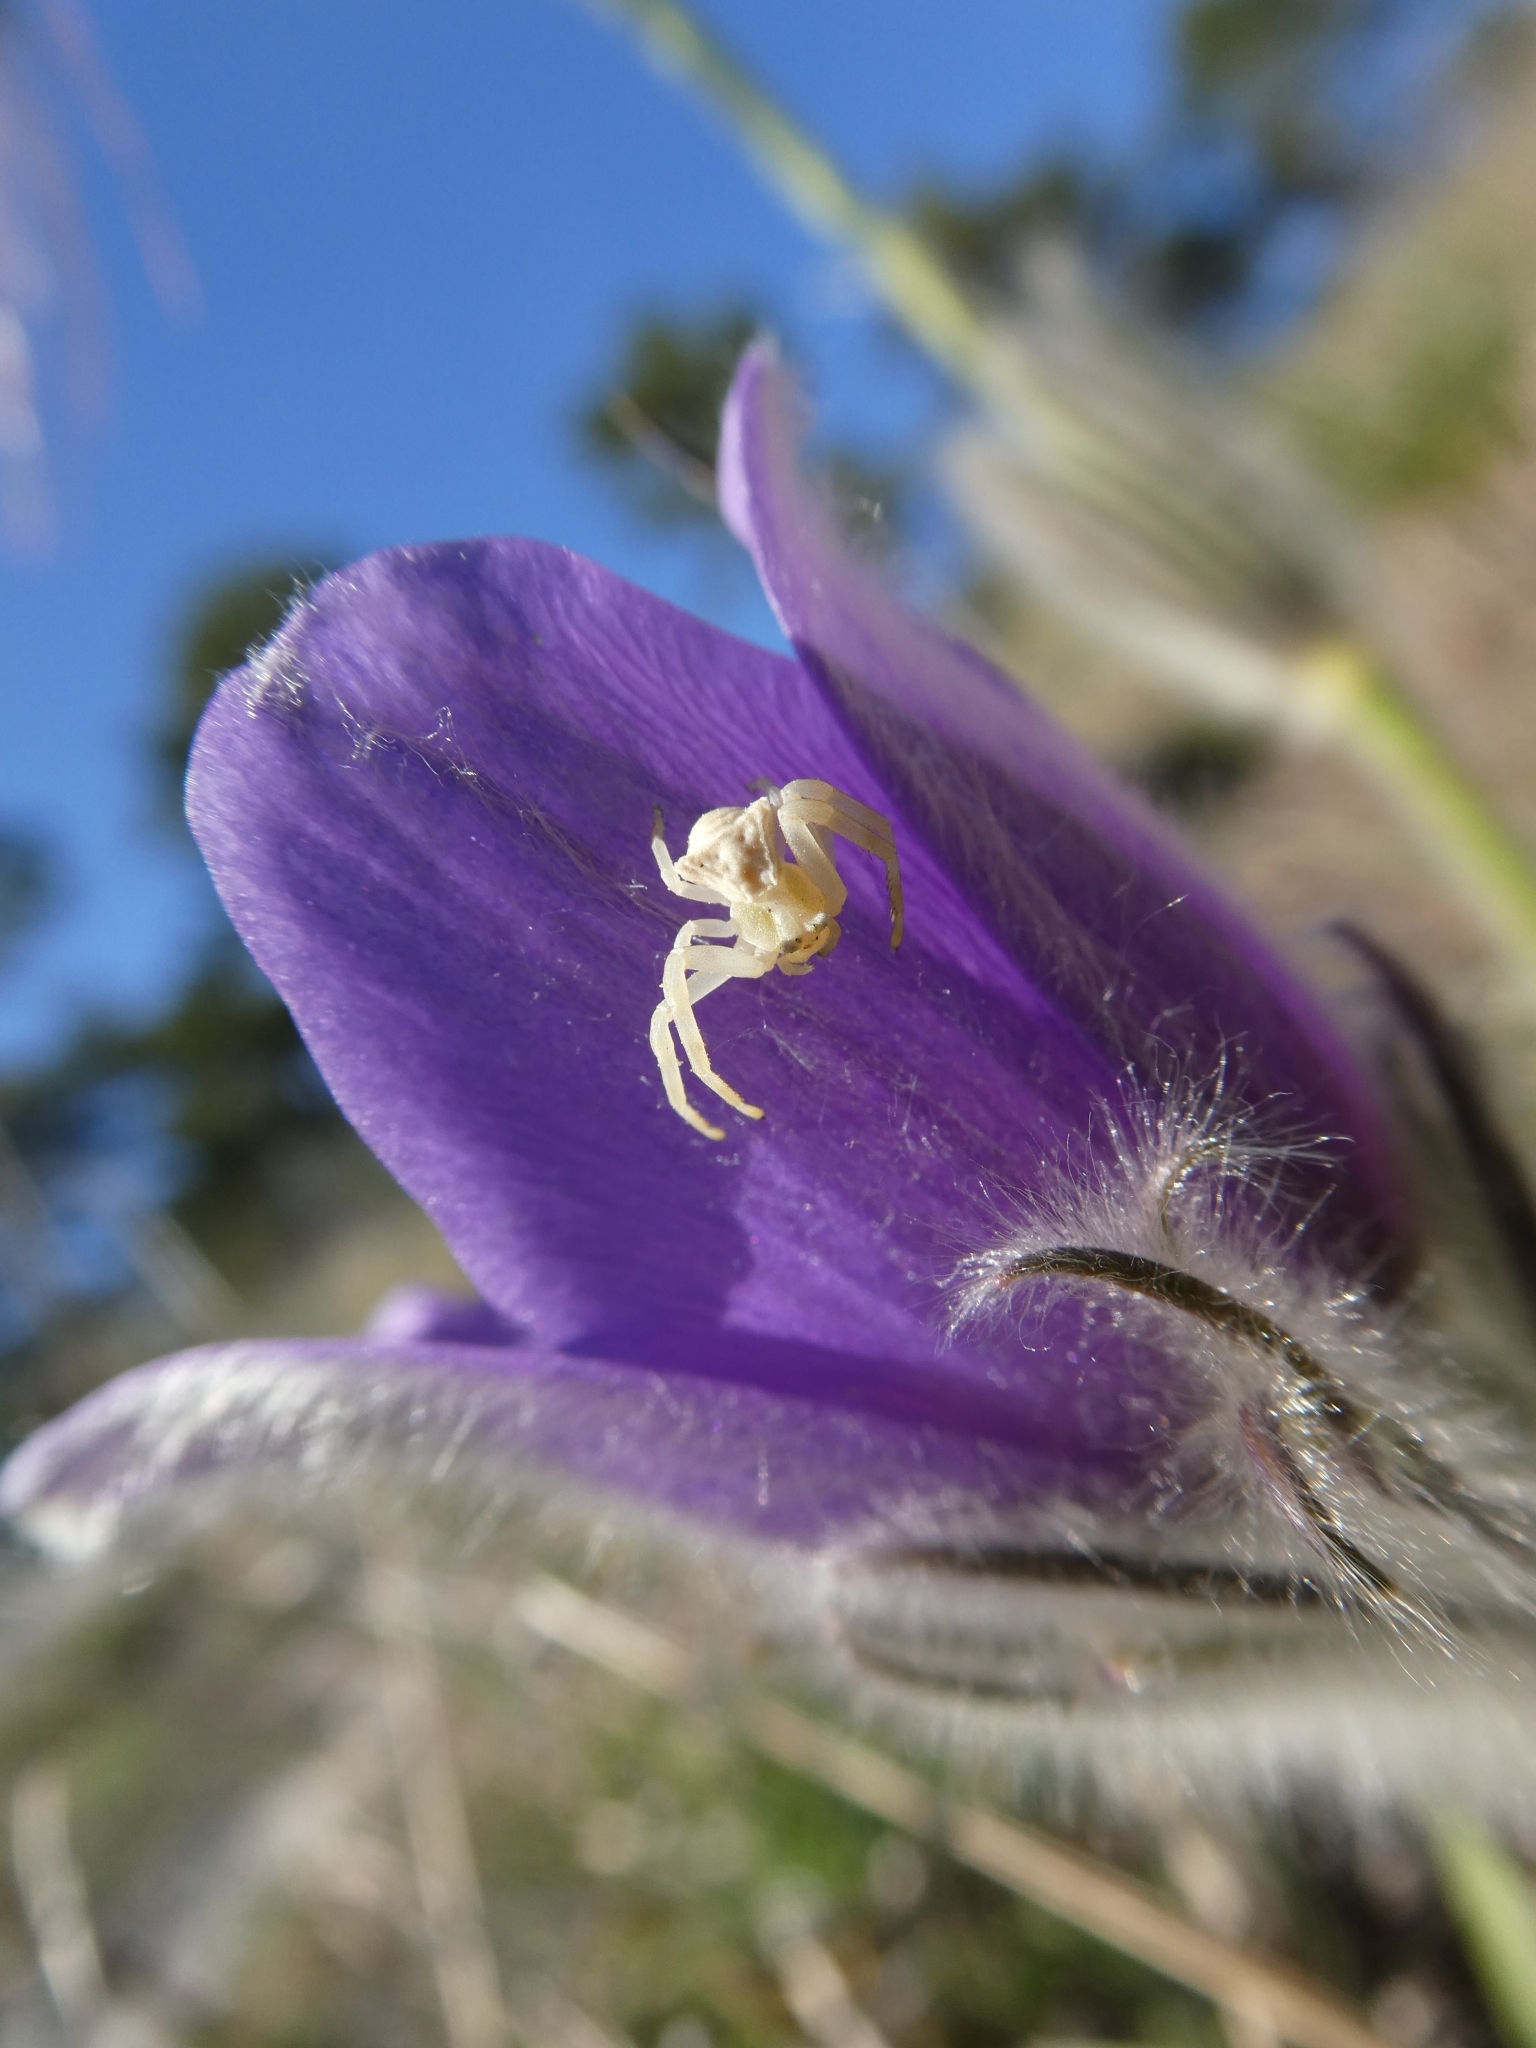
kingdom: Plantae
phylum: Tracheophyta
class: Magnoliopsida
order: Ranunculales
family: Ranunculaceae
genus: Pulsatilla
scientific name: Pulsatilla grandis
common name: Greater pasque flower
